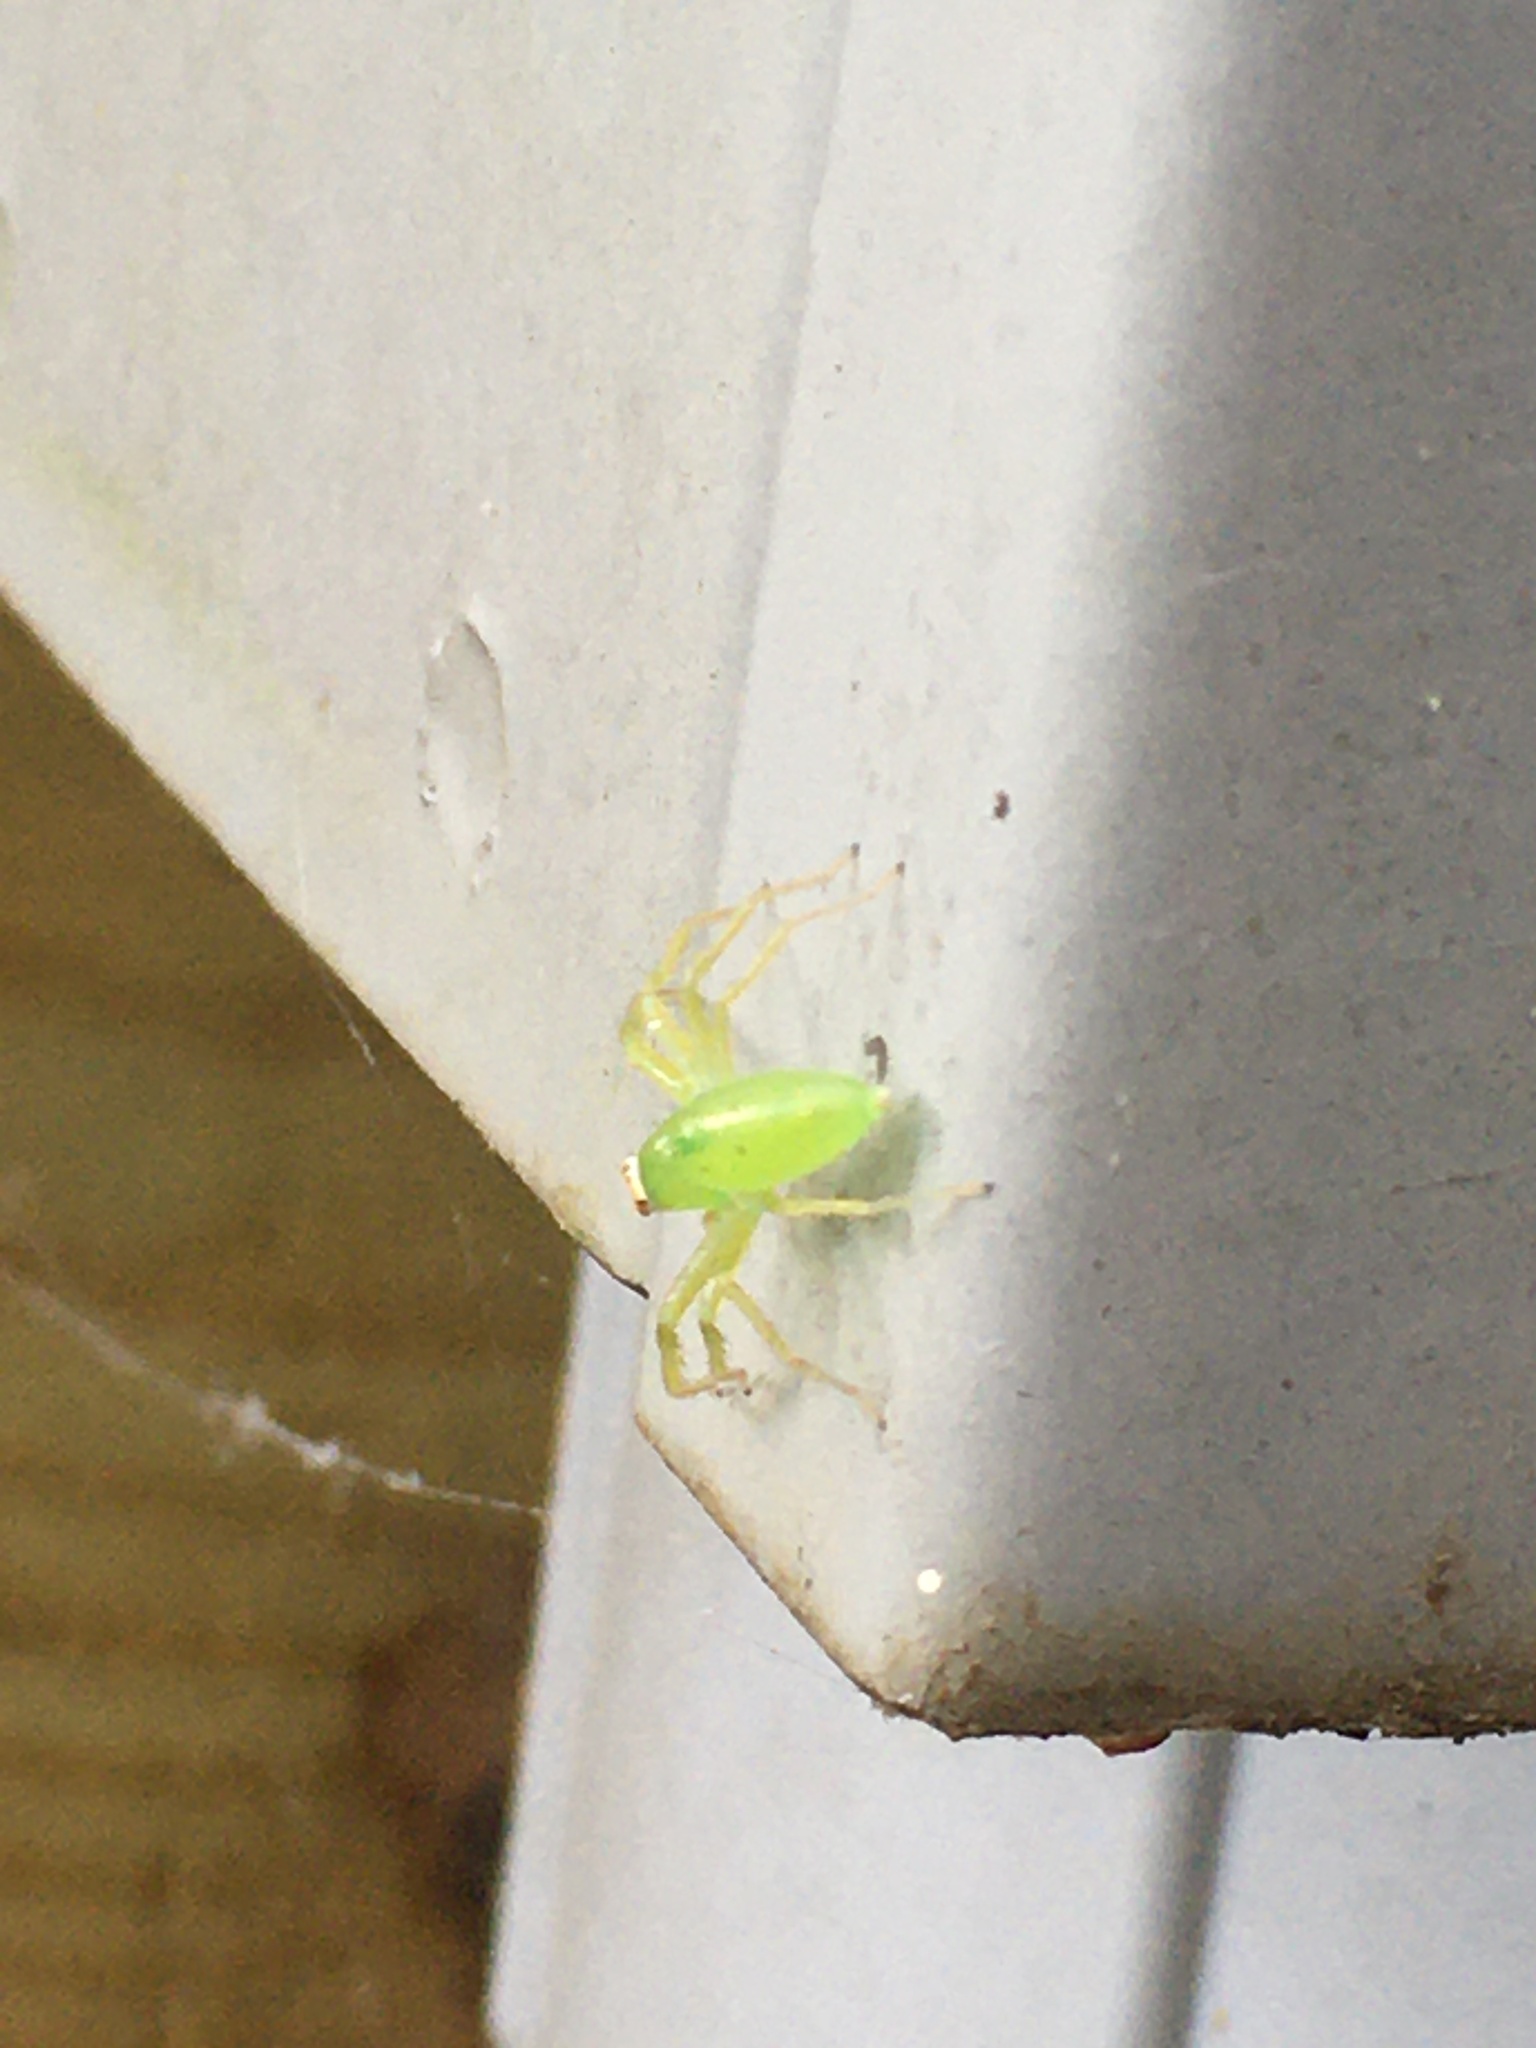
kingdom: Animalia
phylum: Arthropoda
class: Arachnida
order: Araneae
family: Salticidae
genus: Lyssomanes
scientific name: Lyssomanes viridis
